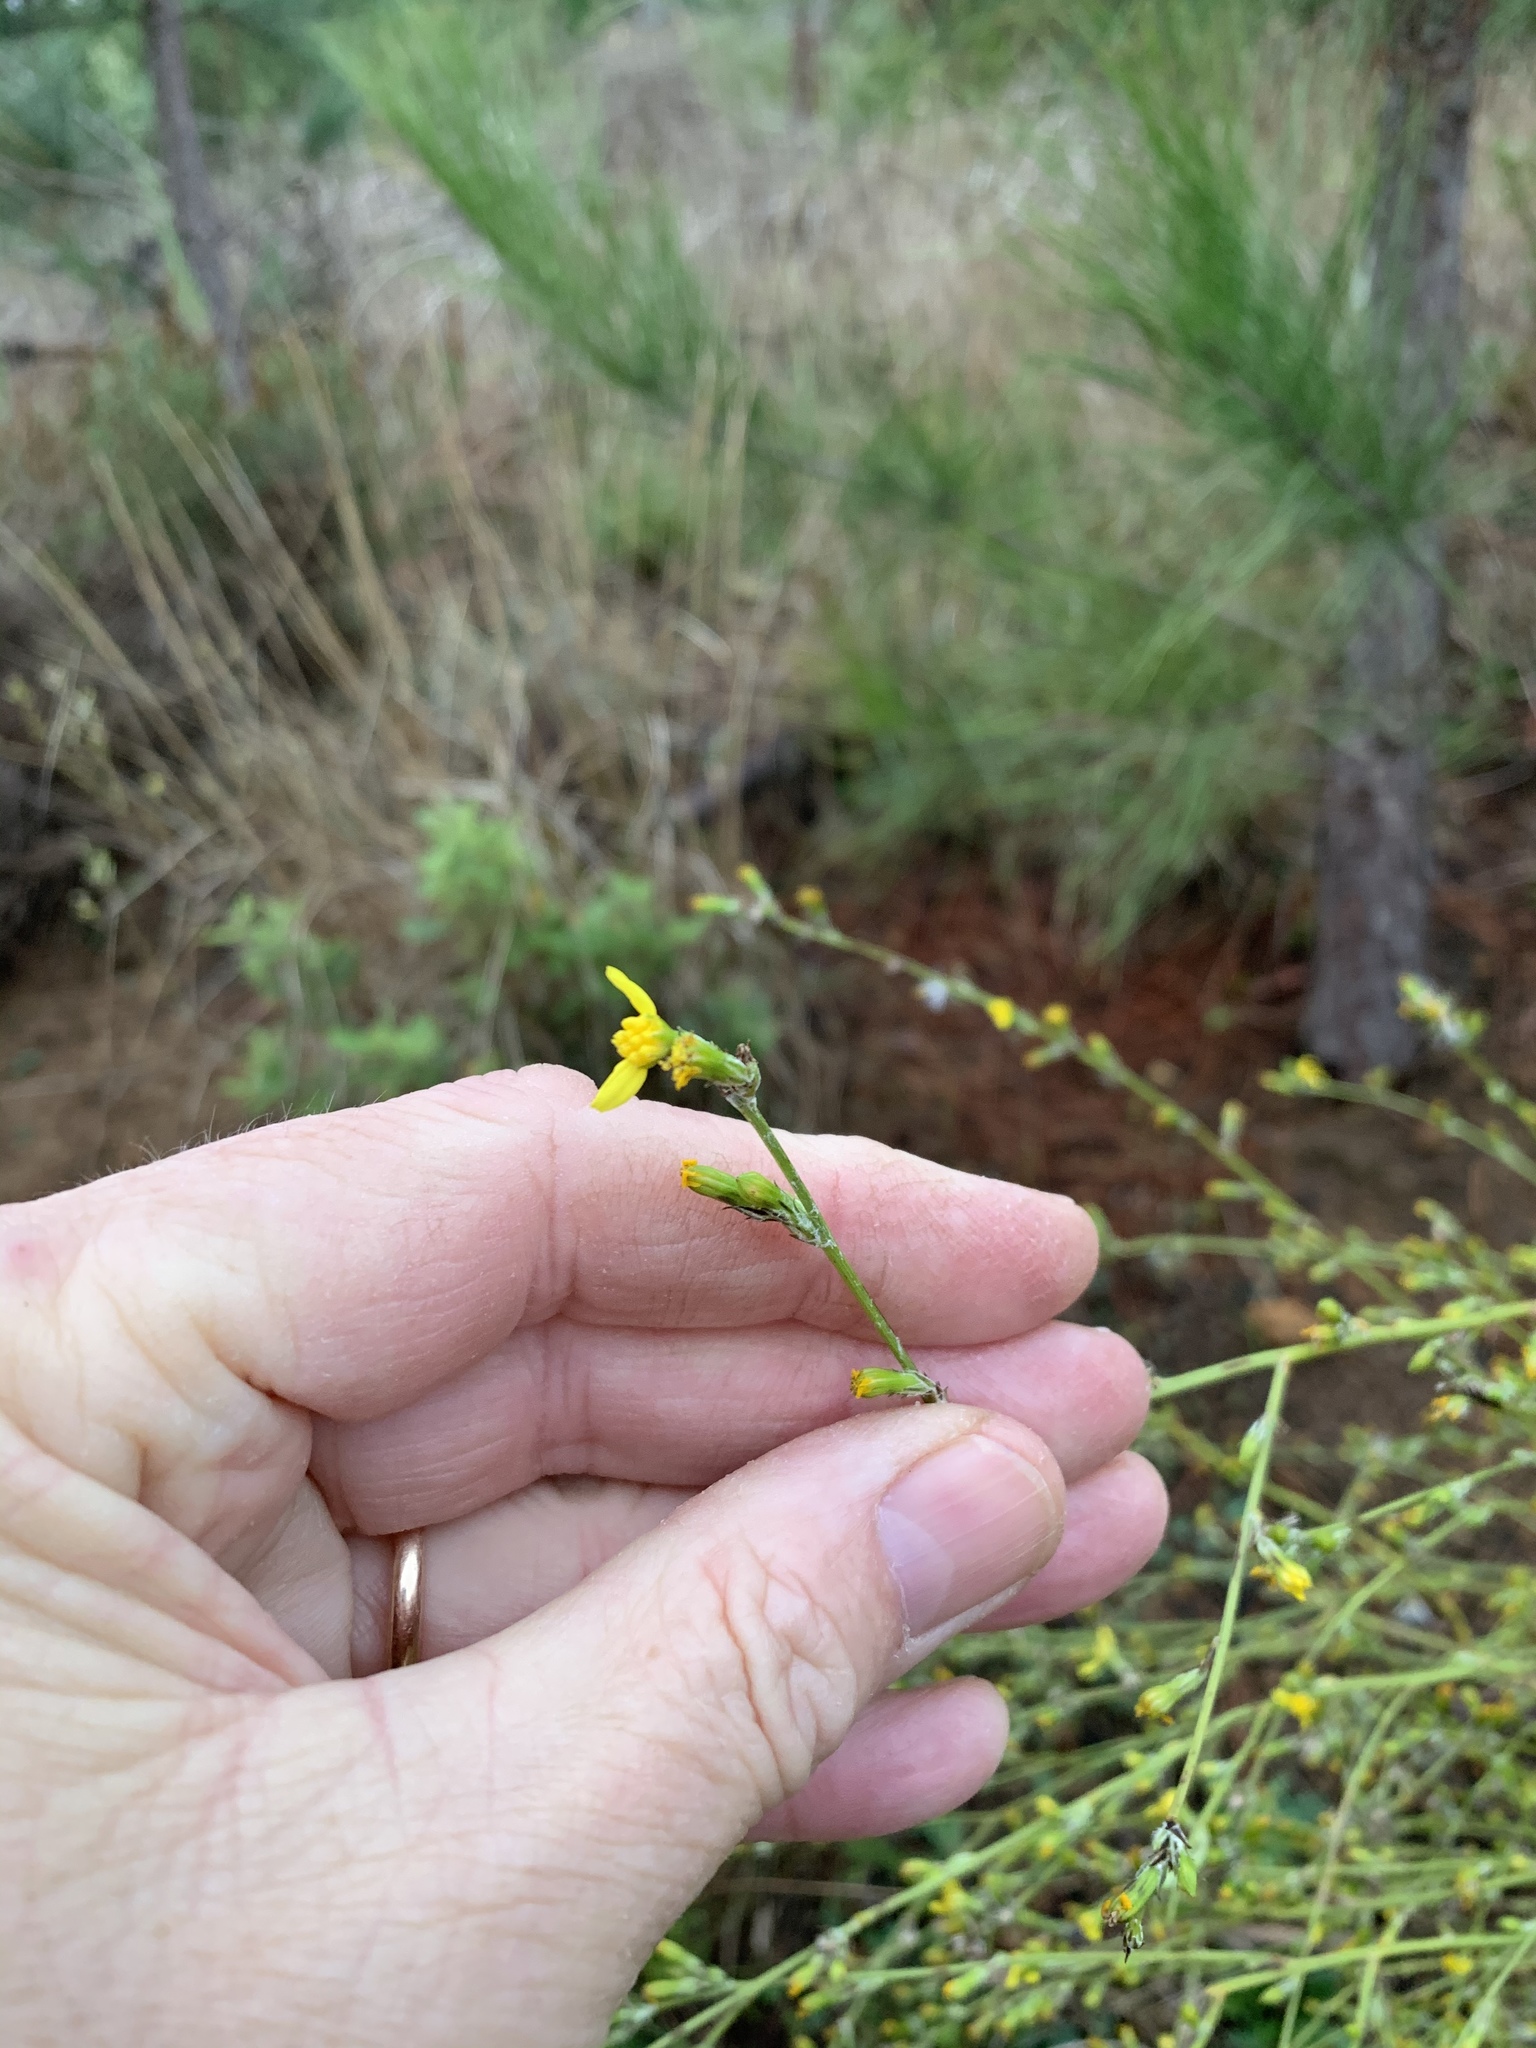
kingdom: Plantae
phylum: Tracheophyta
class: Magnoliopsida
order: Asterales
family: Asteraceae
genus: Senecio
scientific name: Senecio pubigerus
